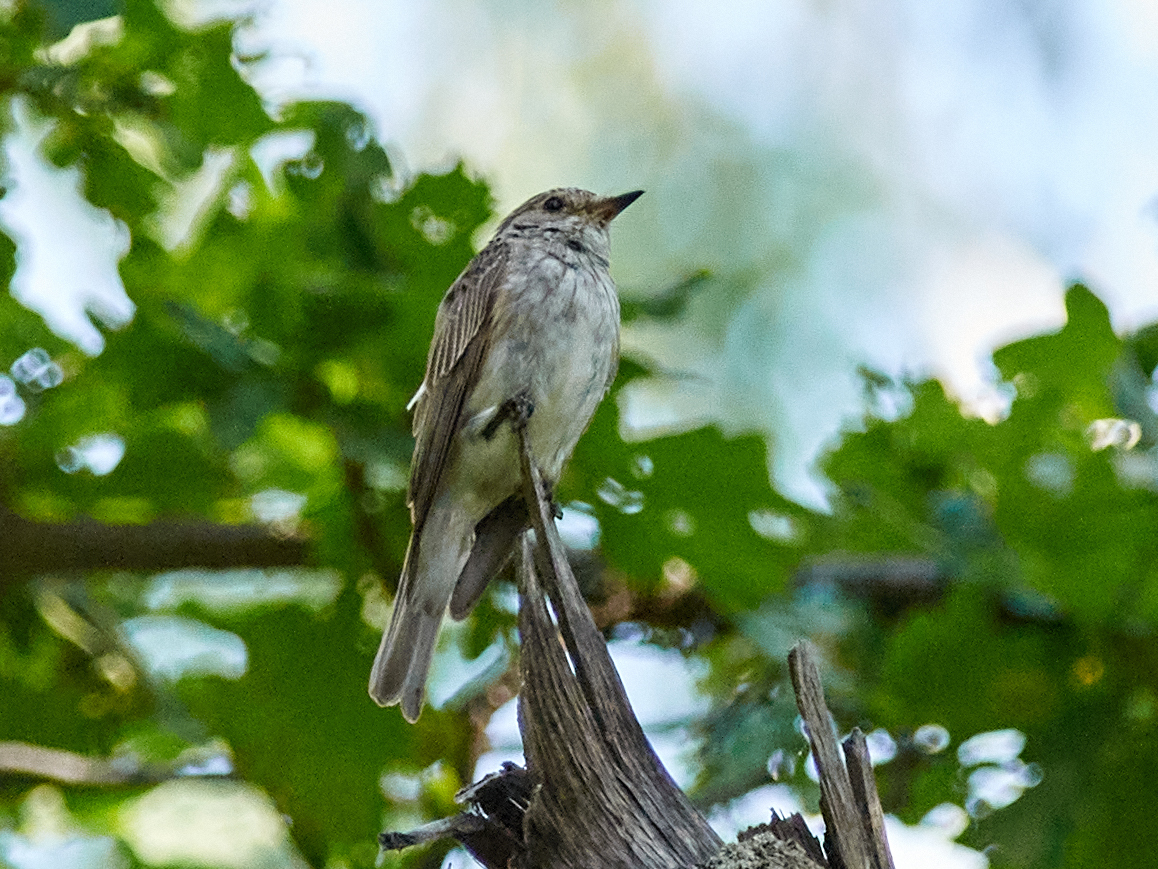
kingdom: Animalia
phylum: Chordata
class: Aves
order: Passeriformes
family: Muscicapidae
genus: Muscicapa
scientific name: Muscicapa striata
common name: Spotted flycatcher
